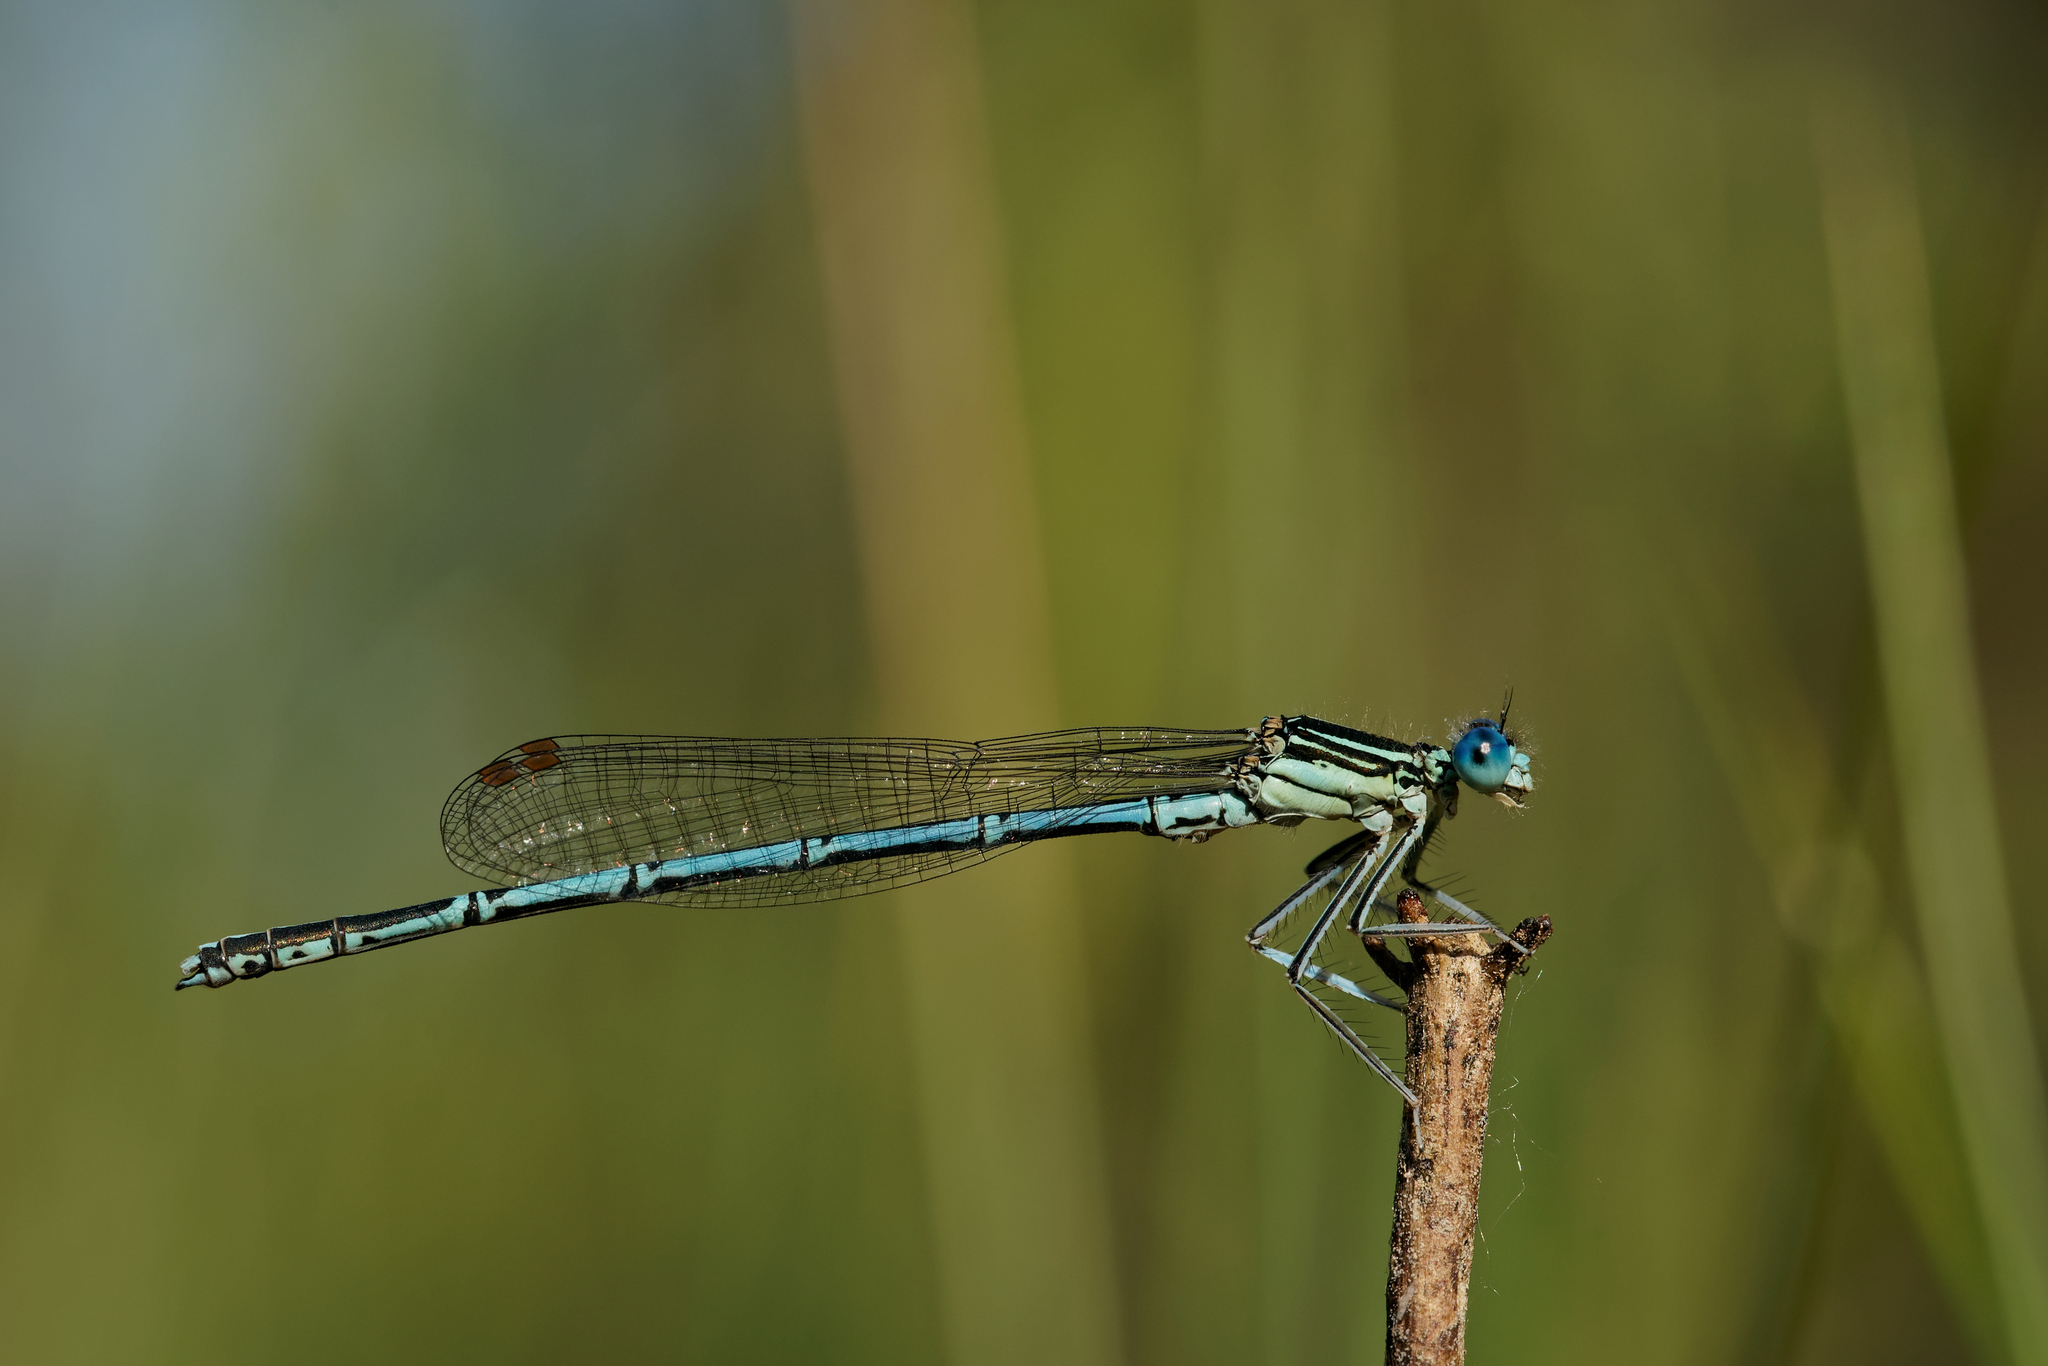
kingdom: Animalia
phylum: Arthropoda
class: Insecta
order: Odonata
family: Platycnemididae
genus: Platycnemis
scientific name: Platycnemis pennipes
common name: White-legged damselfly
